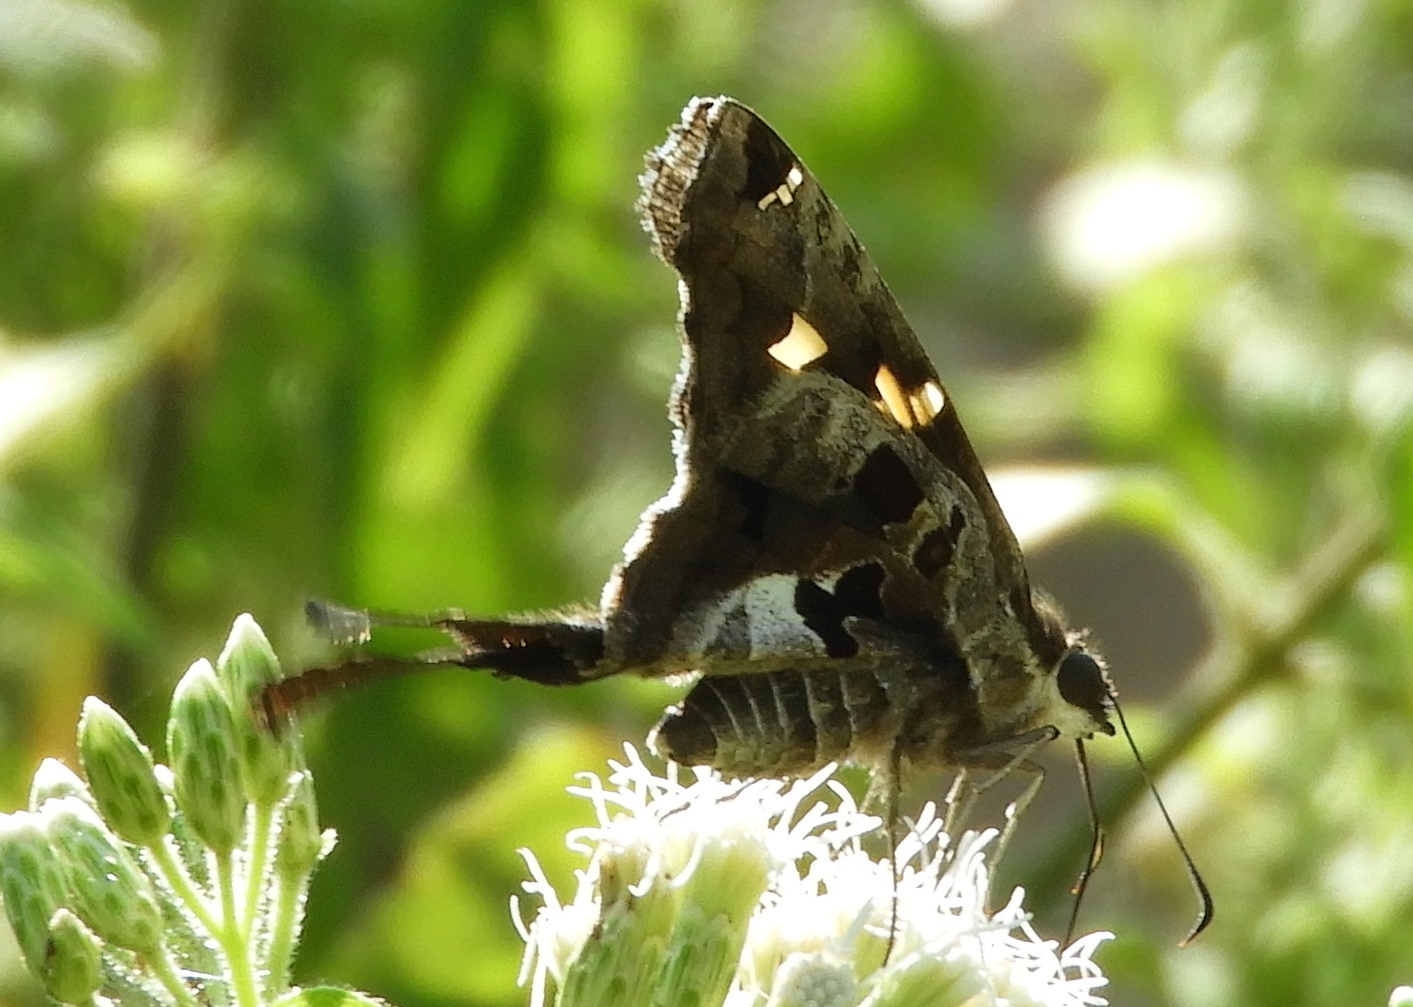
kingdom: Animalia
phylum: Arthropoda
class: Insecta
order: Lepidoptera
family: Hesperiidae
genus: Chioides
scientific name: Chioides zilpa
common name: Zilpa longtail
